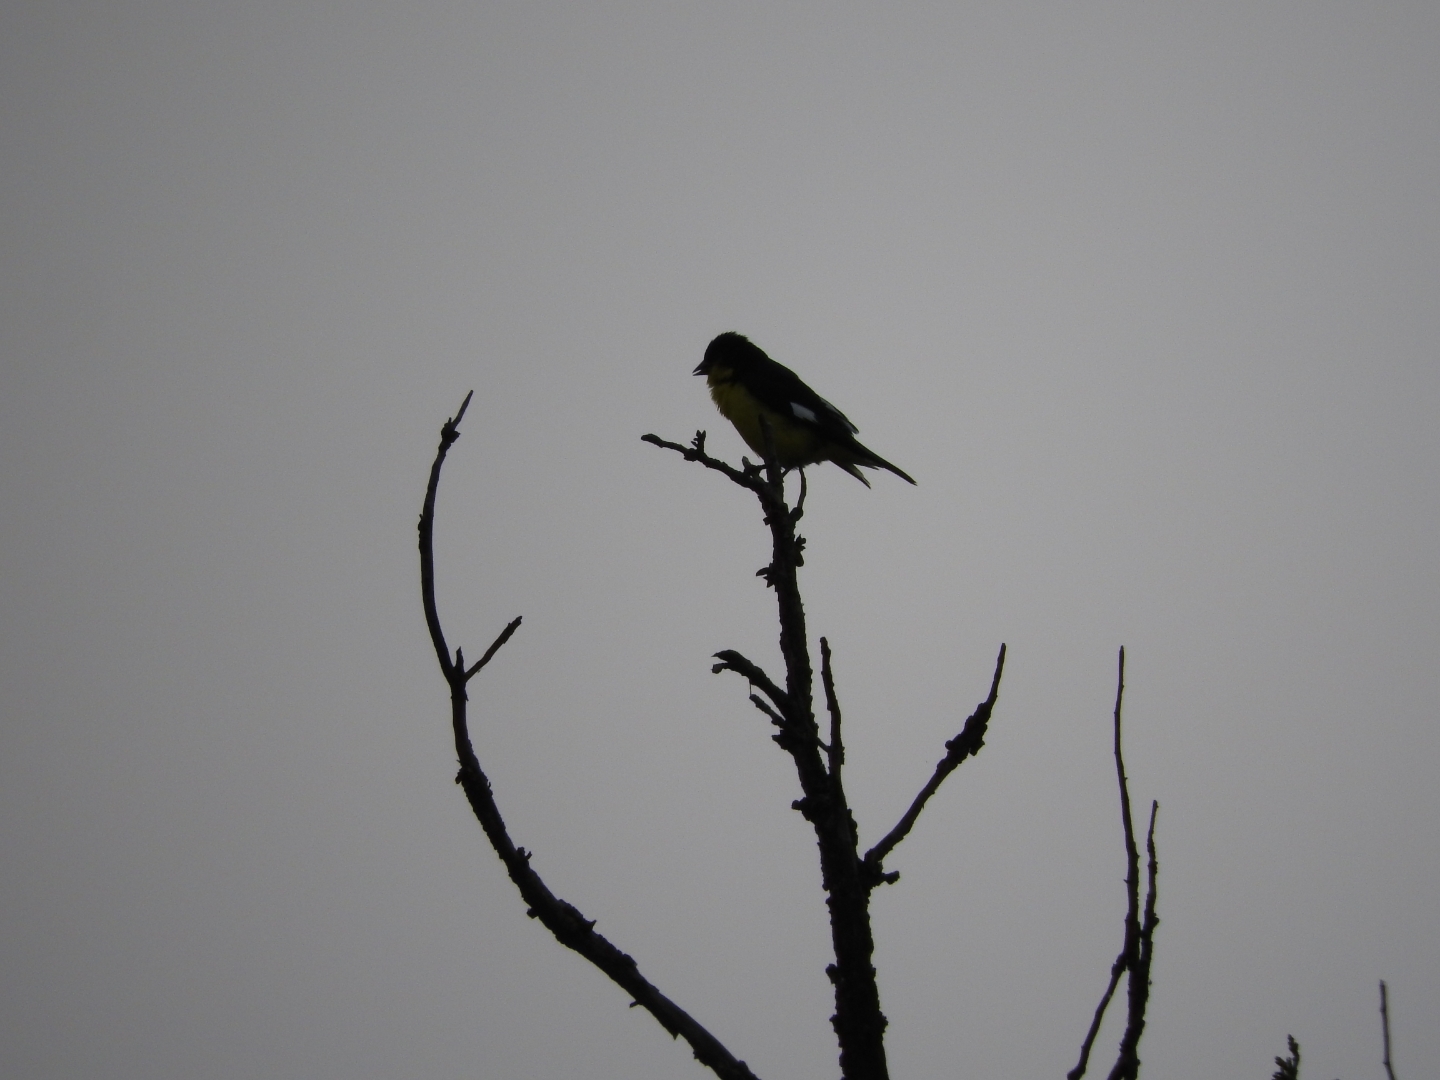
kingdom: Animalia
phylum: Chordata
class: Aves
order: Passeriformes
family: Fringillidae
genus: Spinus
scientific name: Spinus psaltria
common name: Lesser goldfinch
